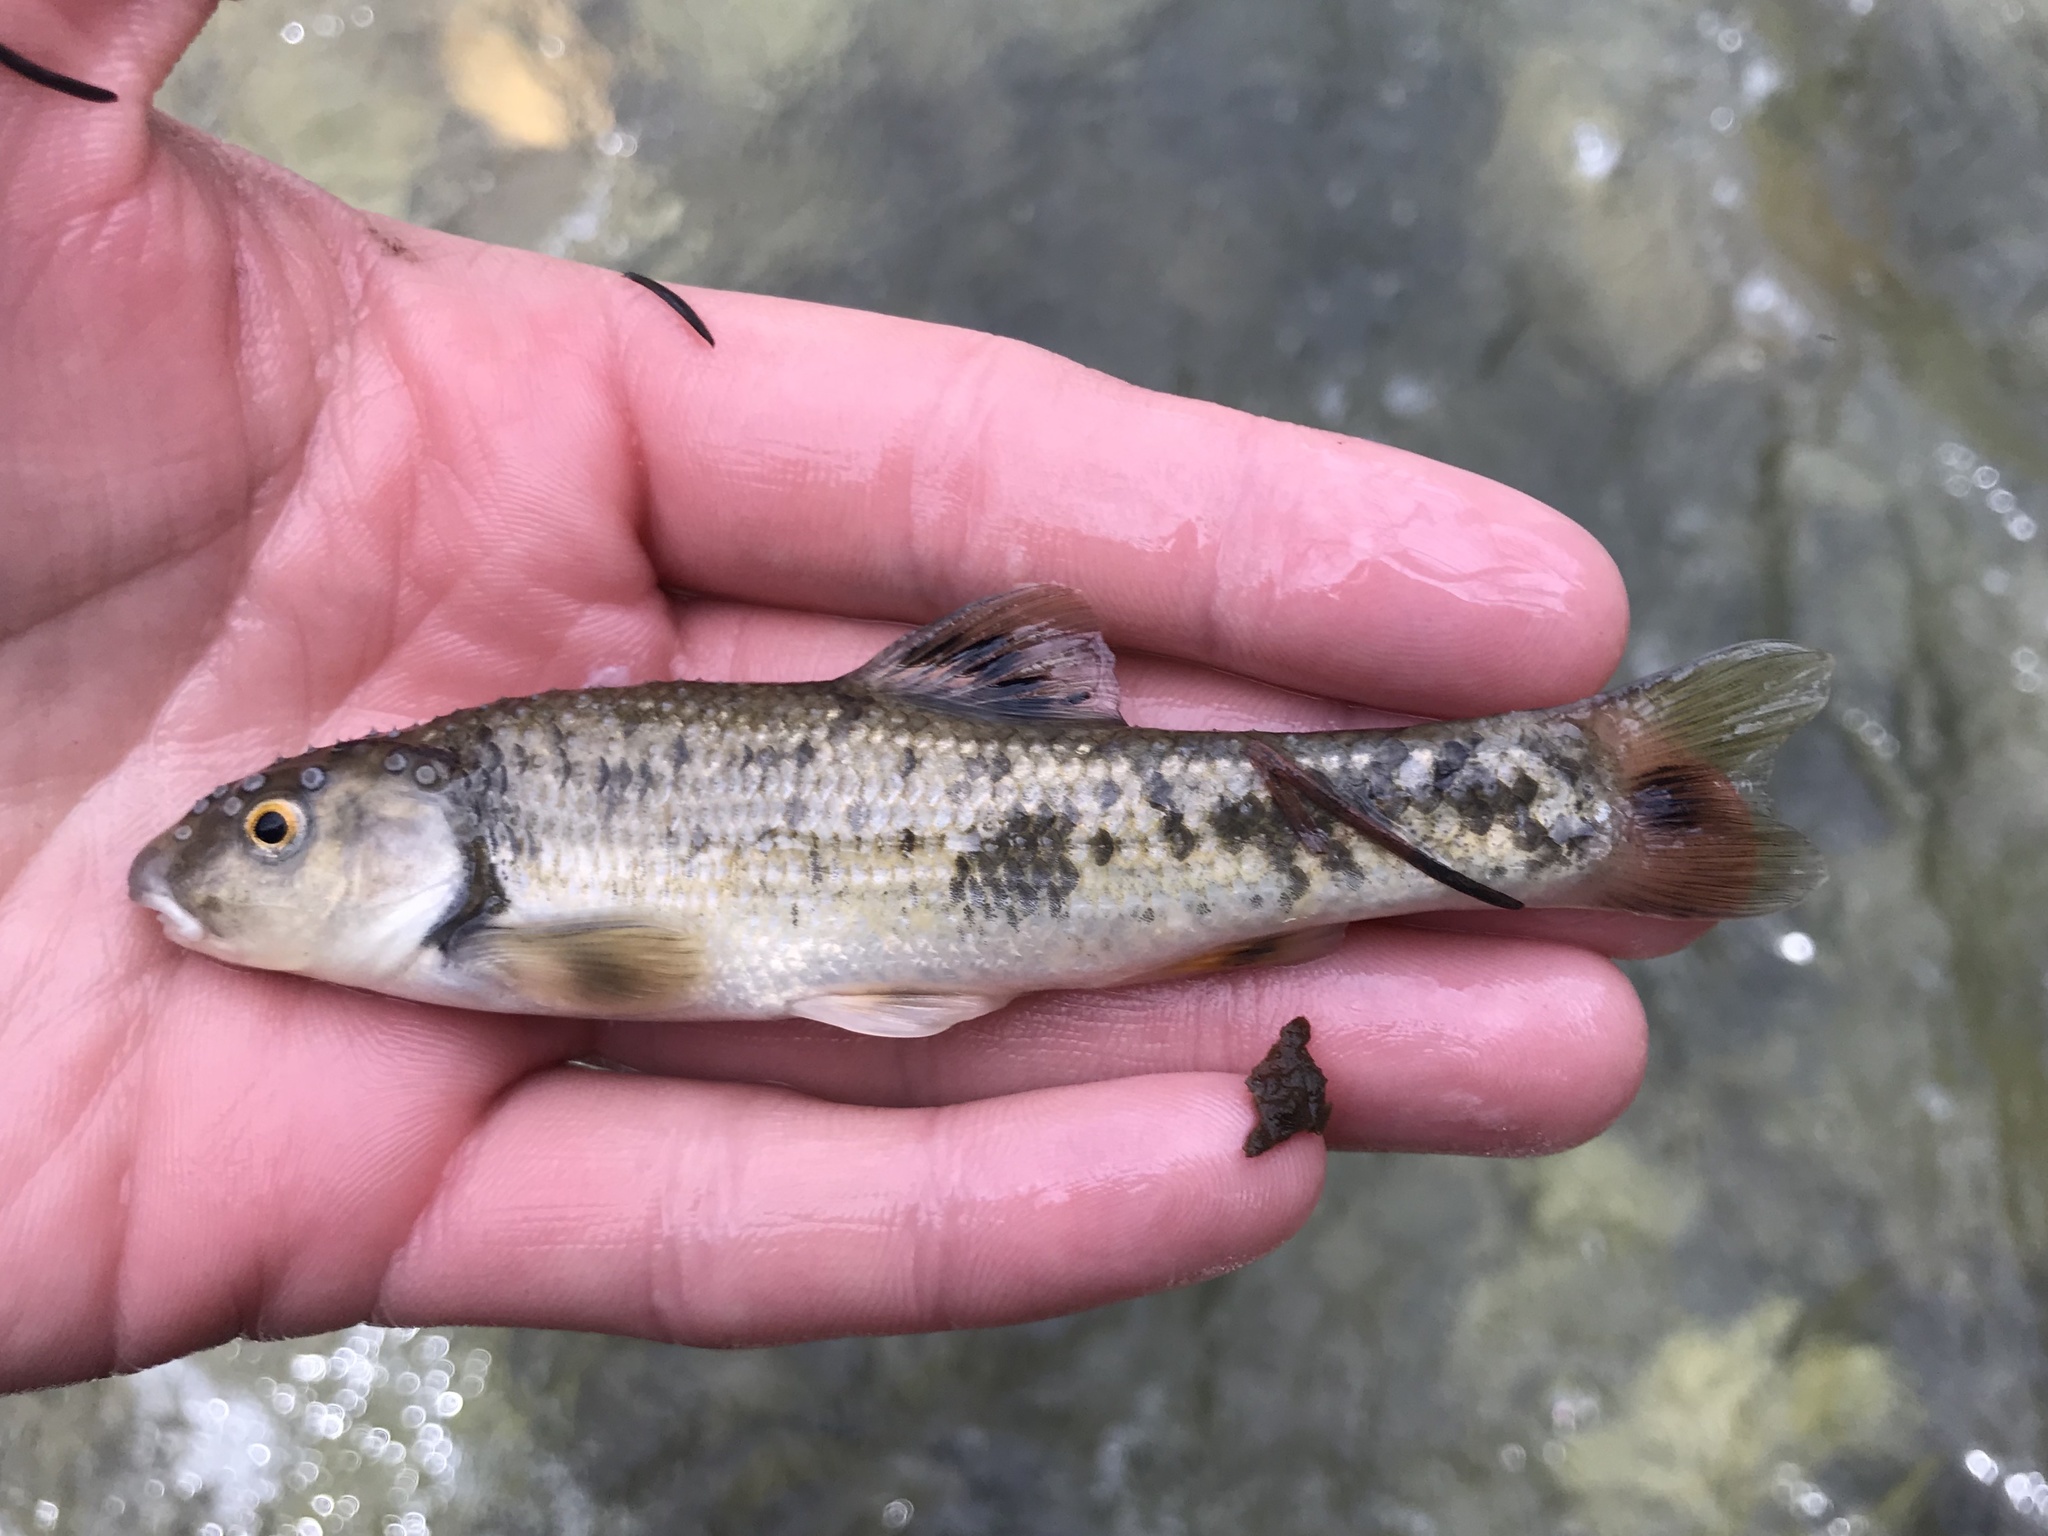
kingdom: Animalia
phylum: Chordata
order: Cypriniformes
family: Cyprinidae
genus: Campostoma
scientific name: Campostoma anomalum
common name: Central stoneroller
